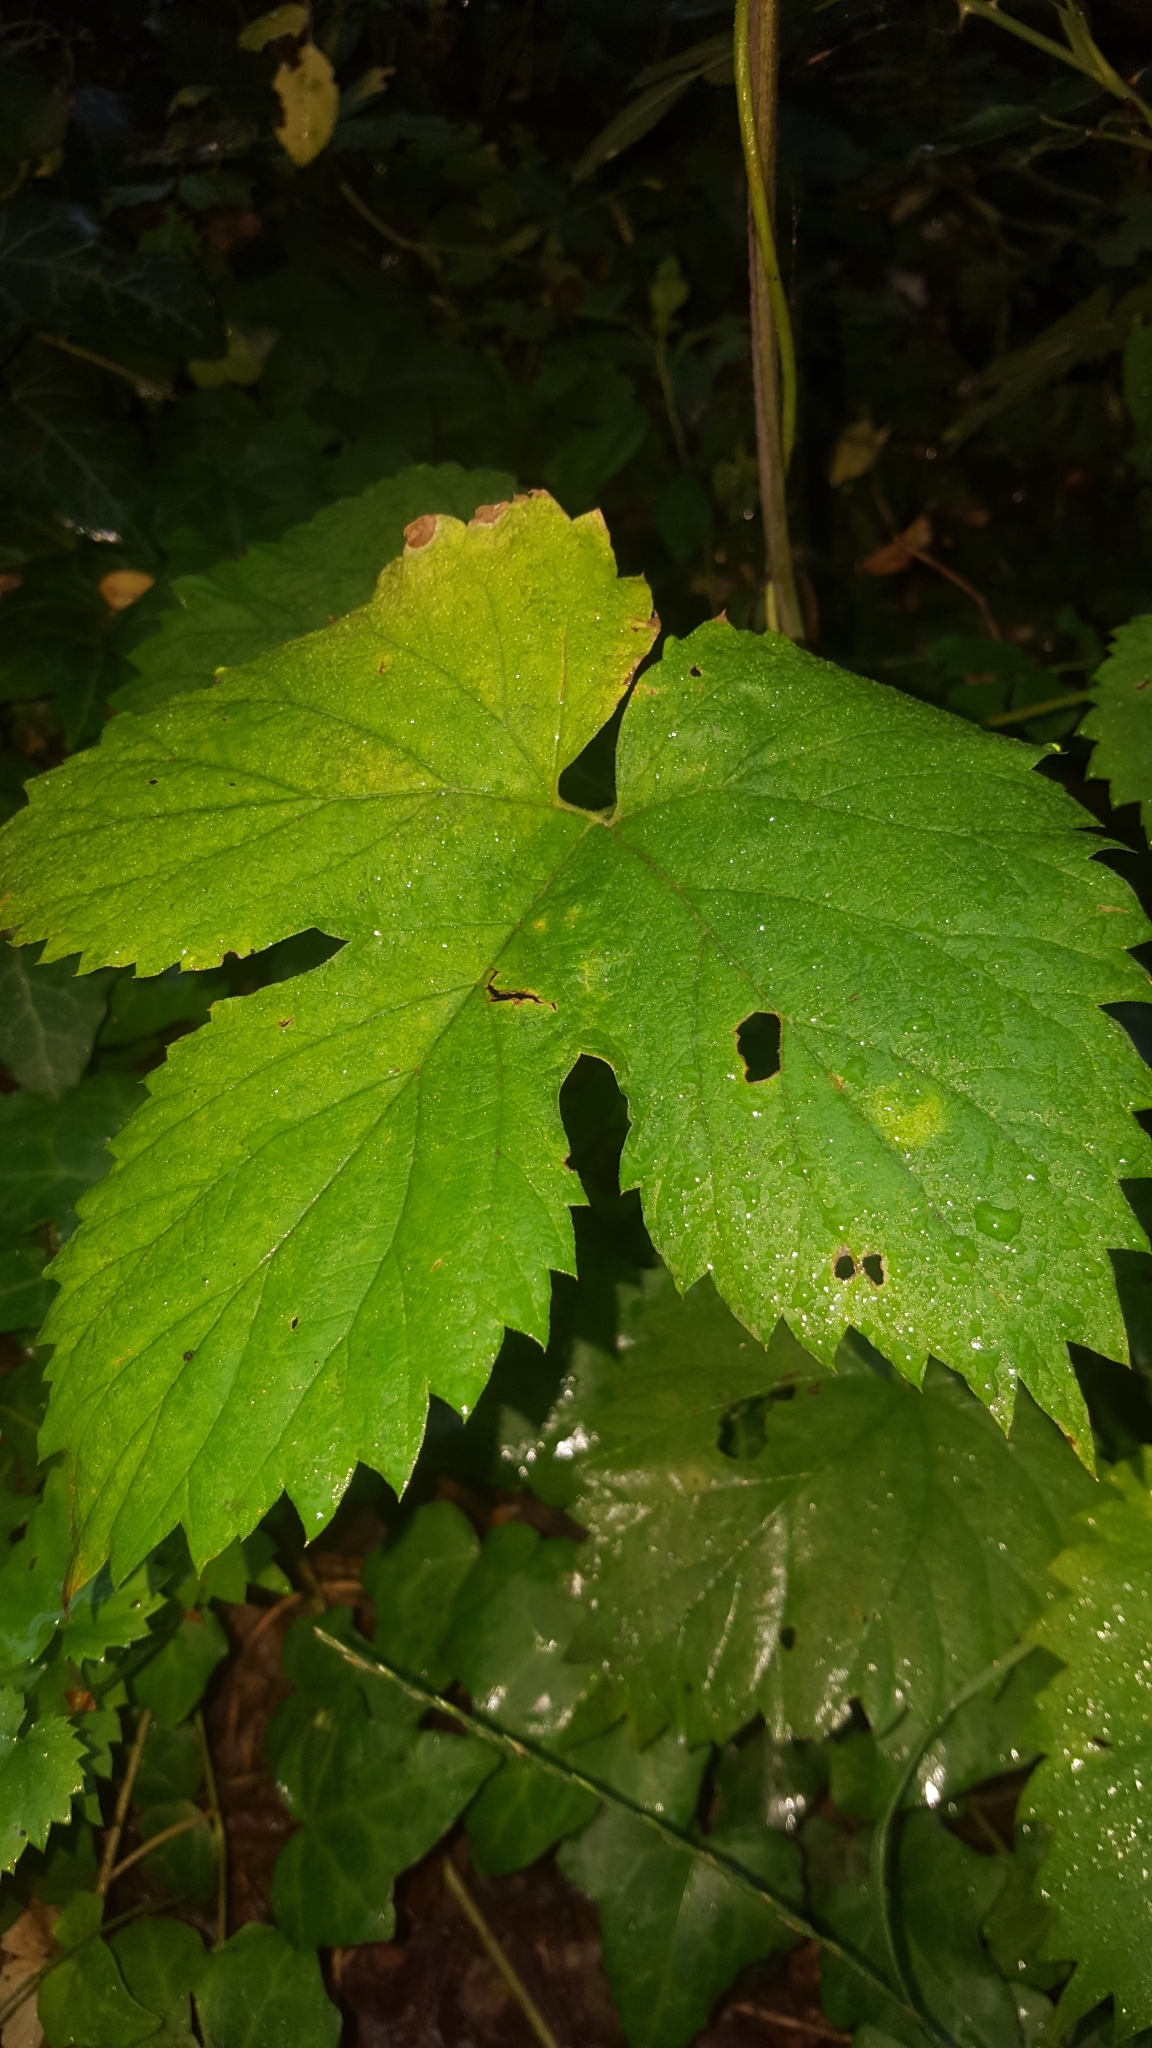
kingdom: Plantae
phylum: Tracheophyta
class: Magnoliopsida
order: Rosales
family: Cannabaceae
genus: Humulus
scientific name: Humulus lupulus
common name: Hop
